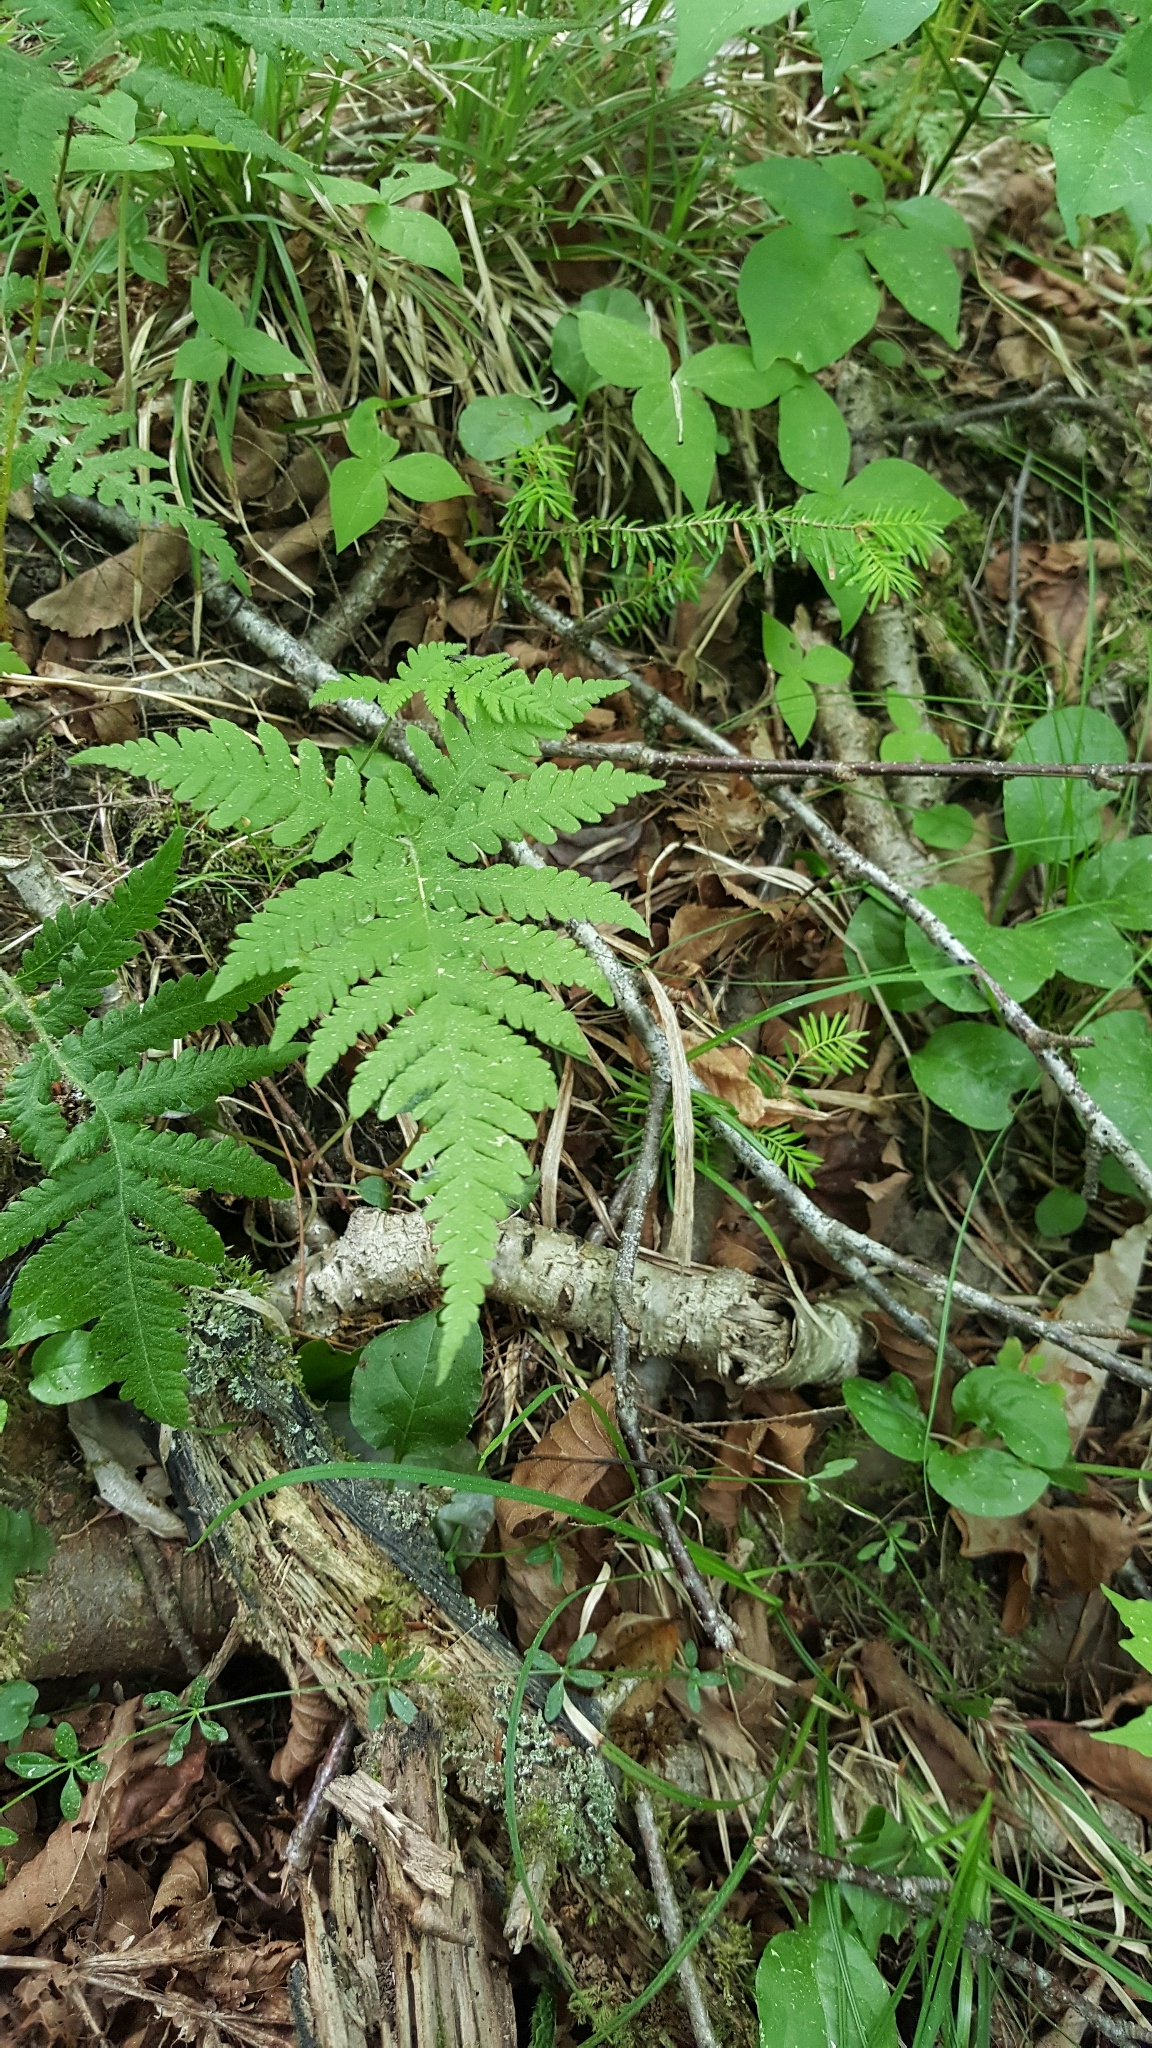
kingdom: Plantae
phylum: Tracheophyta
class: Polypodiopsida
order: Polypodiales
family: Thelypteridaceae
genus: Phegopteris
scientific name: Phegopteris connectilis
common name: Beech fern
